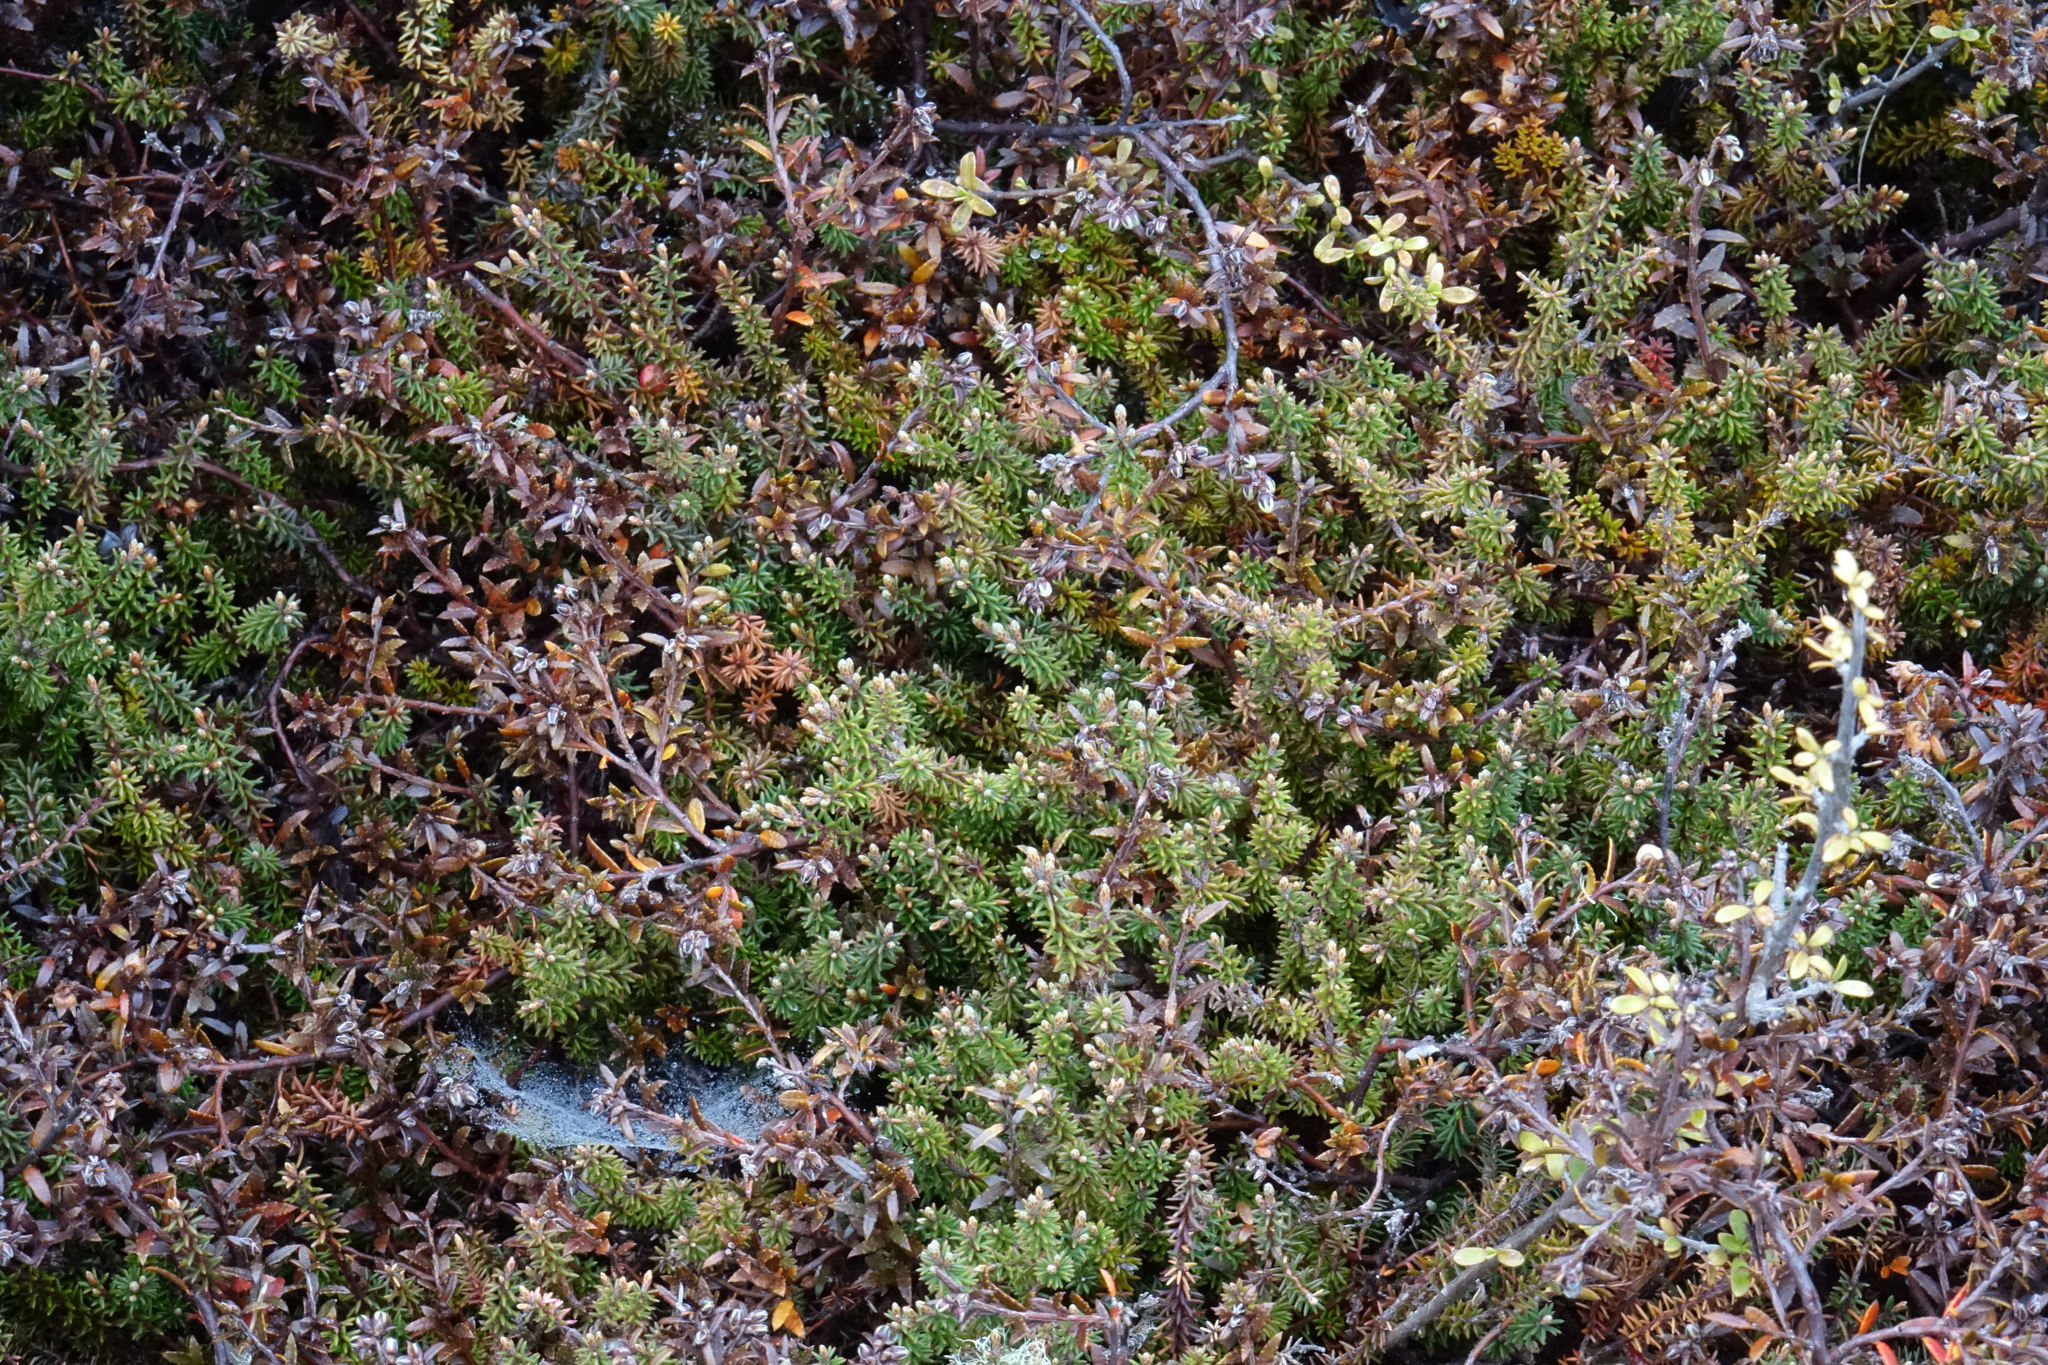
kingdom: Plantae
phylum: Tracheophyta
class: Magnoliopsida
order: Ericales
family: Ericaceae
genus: Androstoma
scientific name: Androstoma empetrifolia
